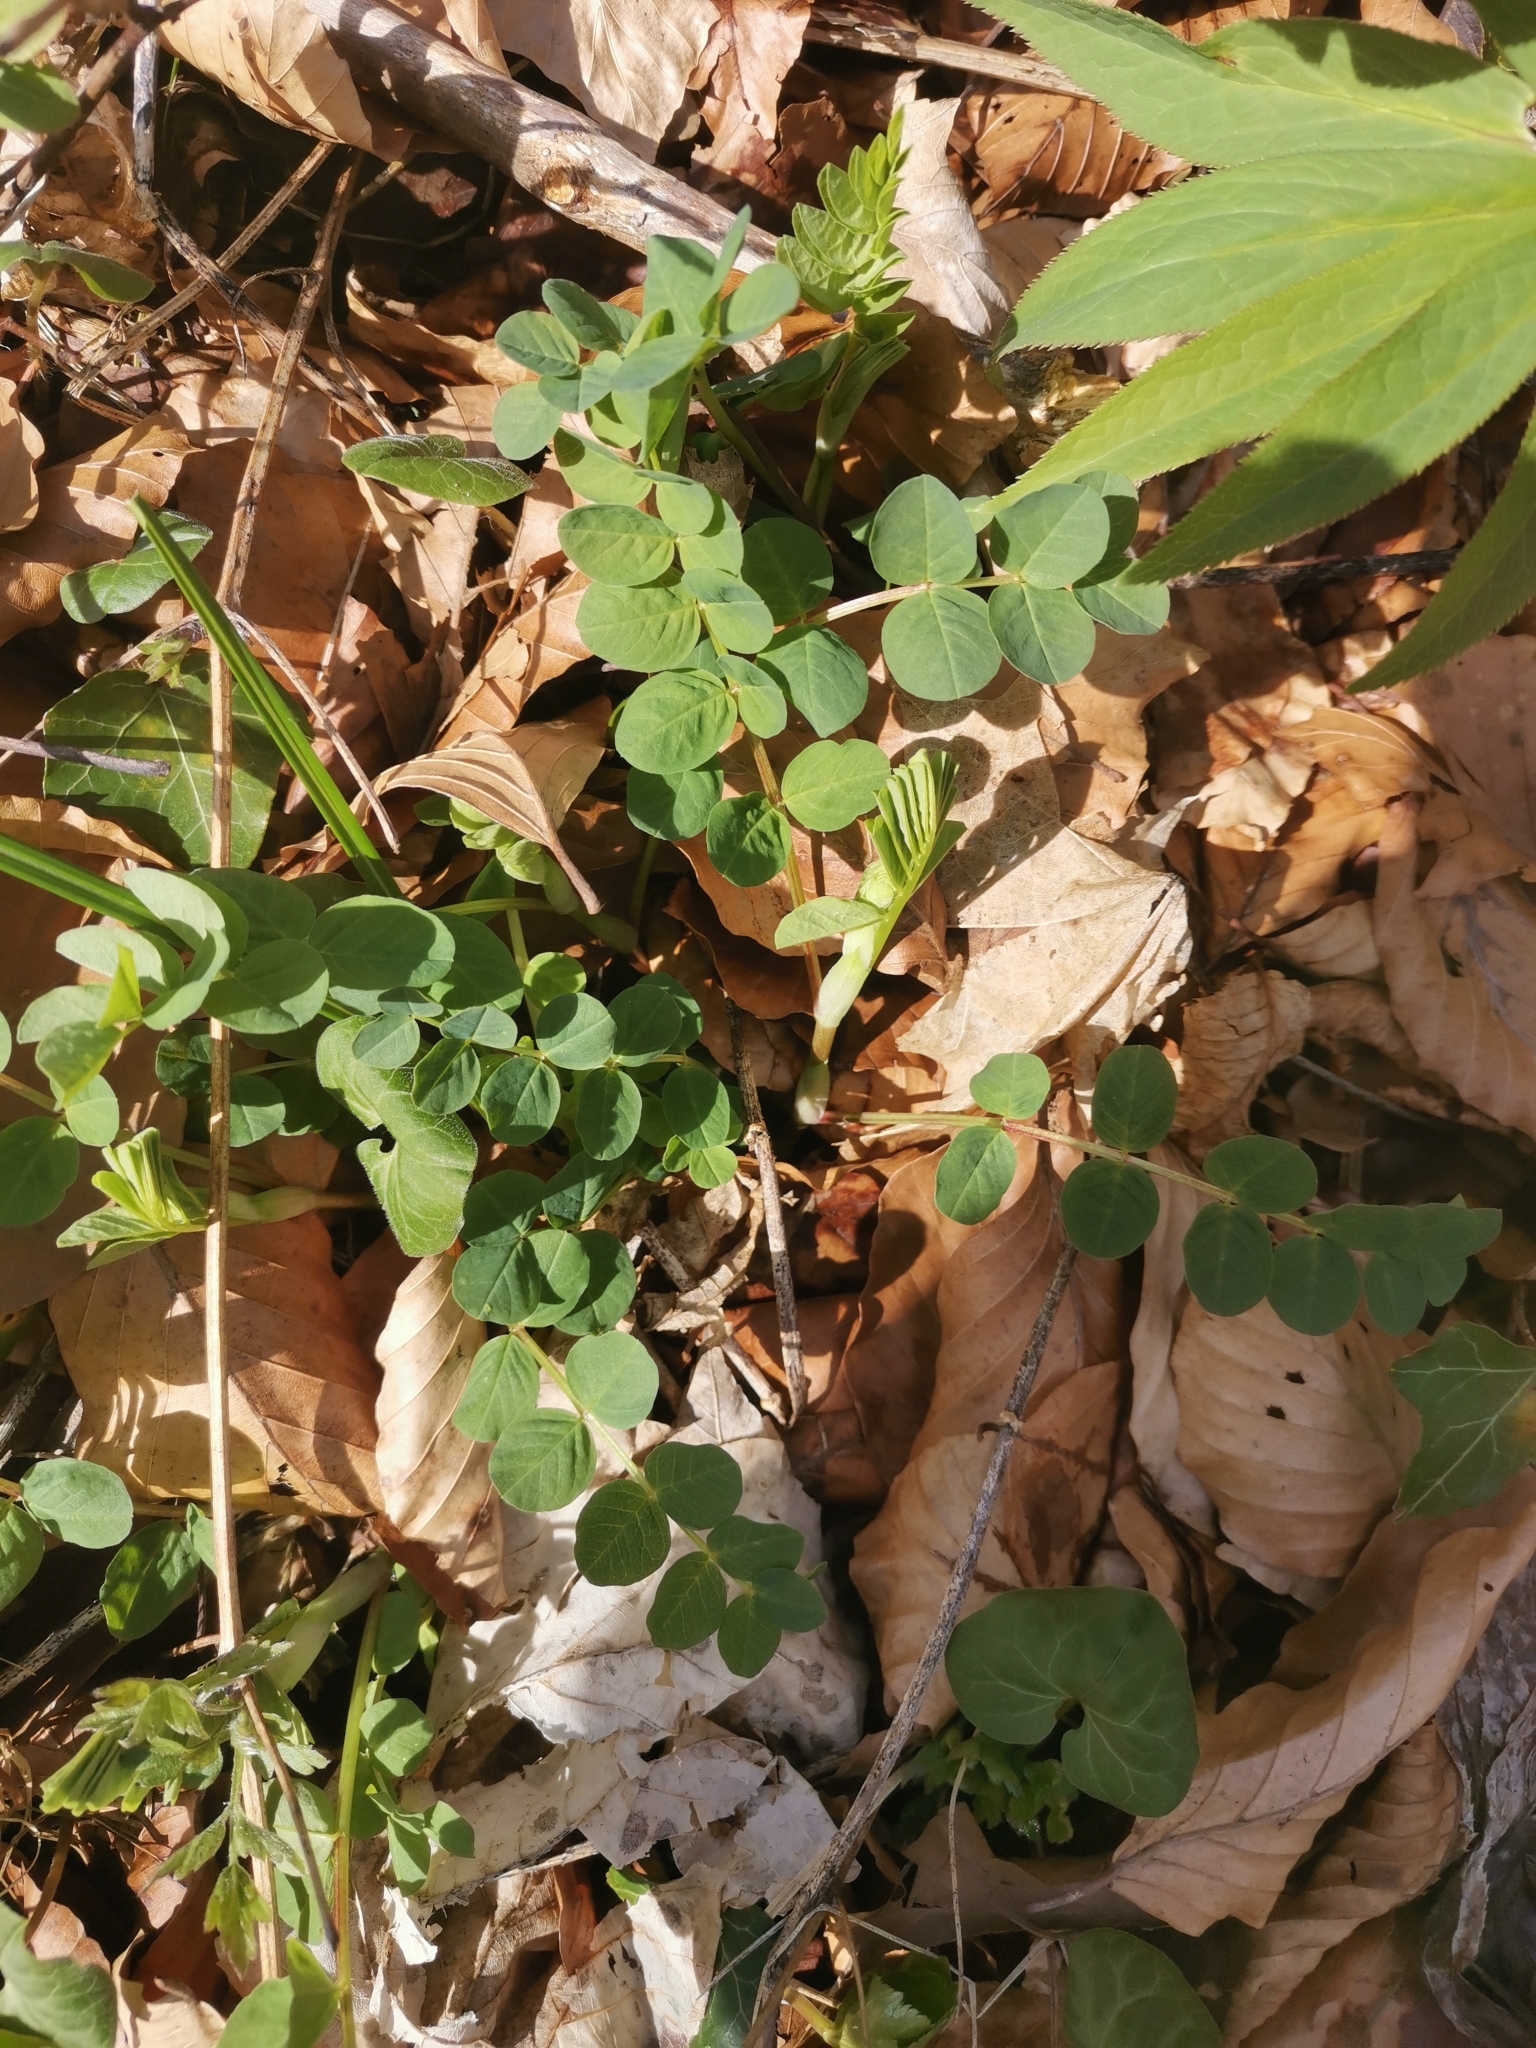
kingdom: Plantae
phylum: Tracheophyta
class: Magnoliopsida
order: Fabales
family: Fabaceae
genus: Astragalus
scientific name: Astragalus glycyphyllos
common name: Wild liquorice
